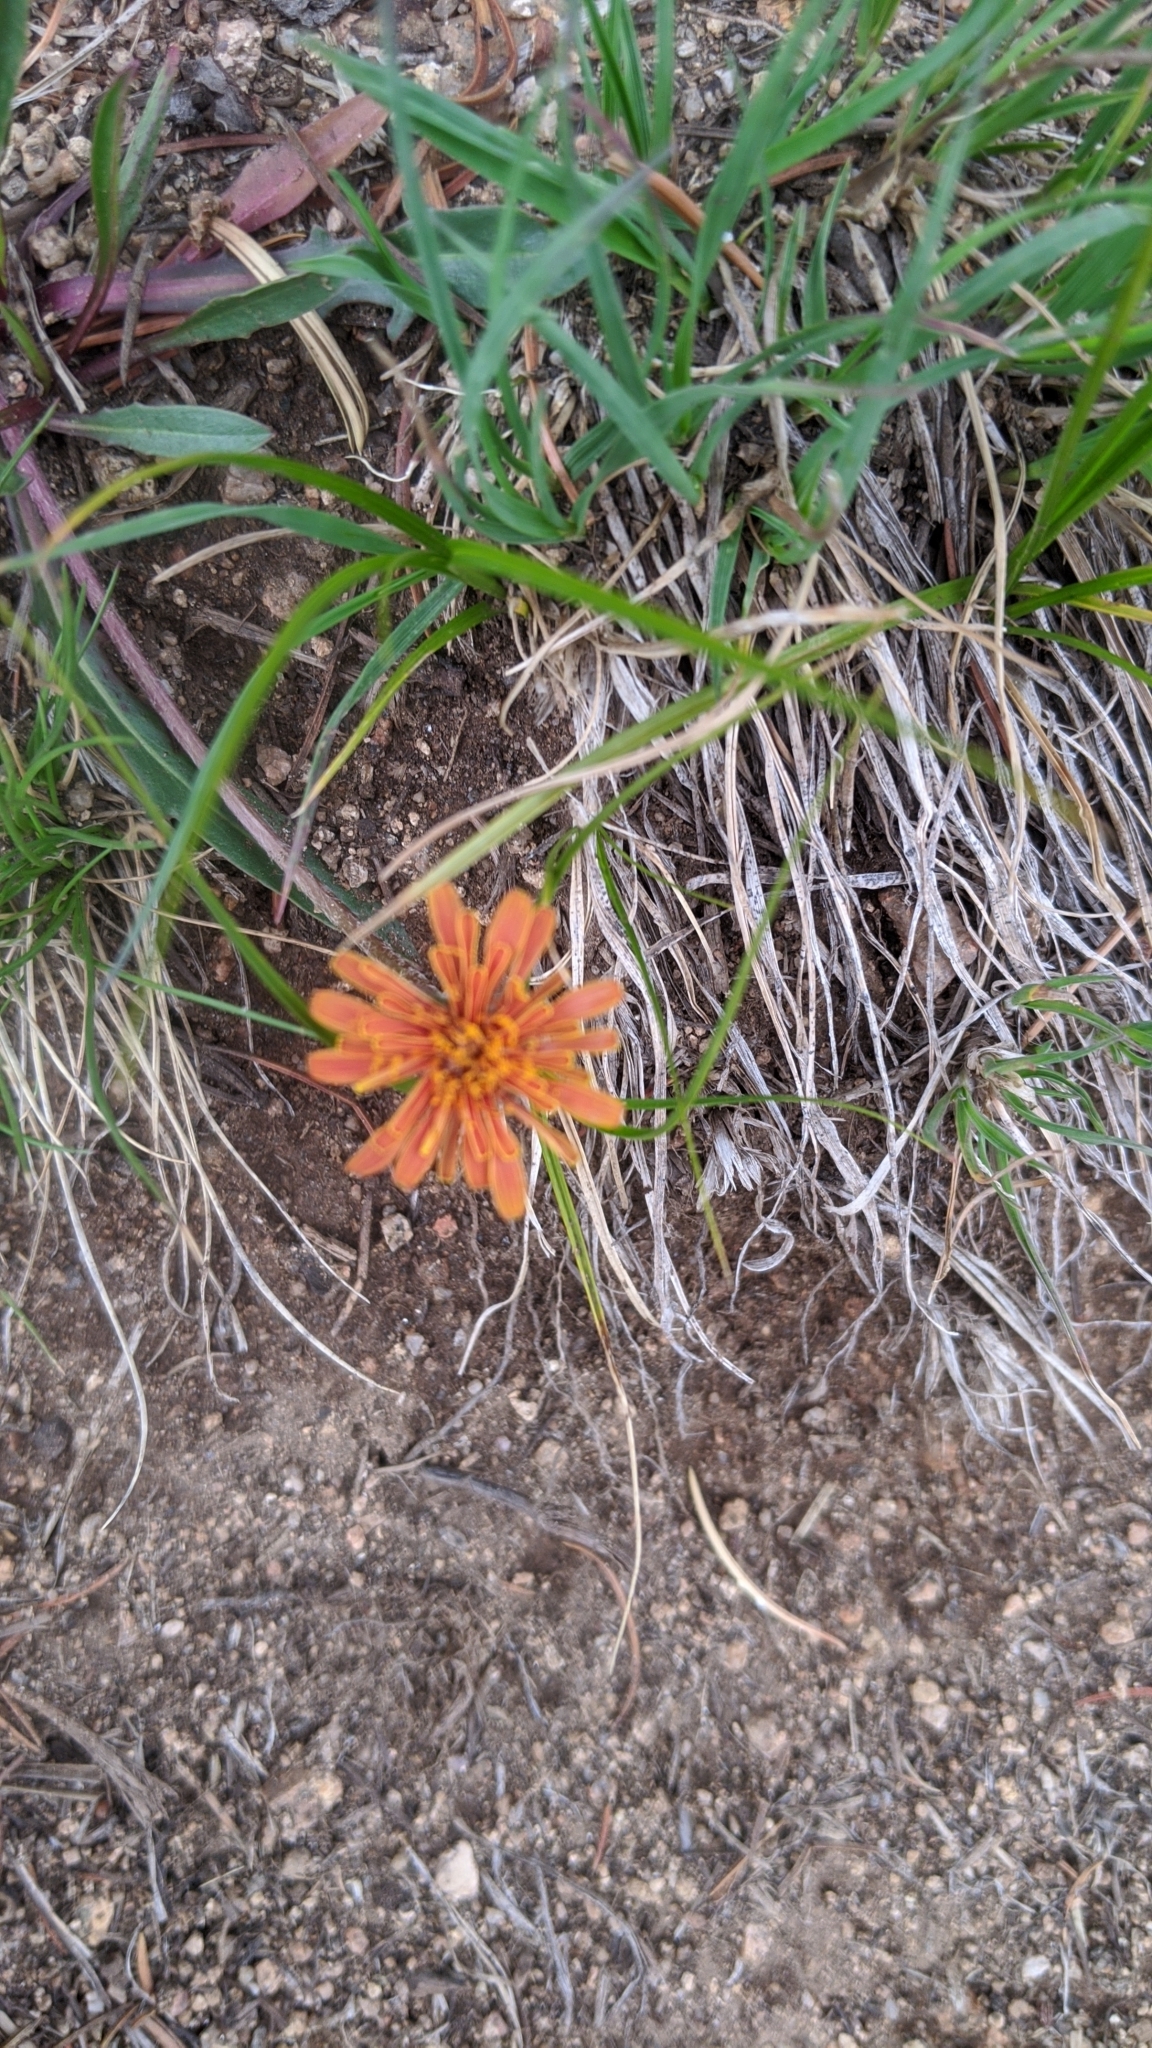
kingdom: Plantae
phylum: Tracheophyta
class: Magnoliopsida
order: Asterales
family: Asteraceae
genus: Agoseris
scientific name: Agoseris aurantiaca
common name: Mountain agoseris
